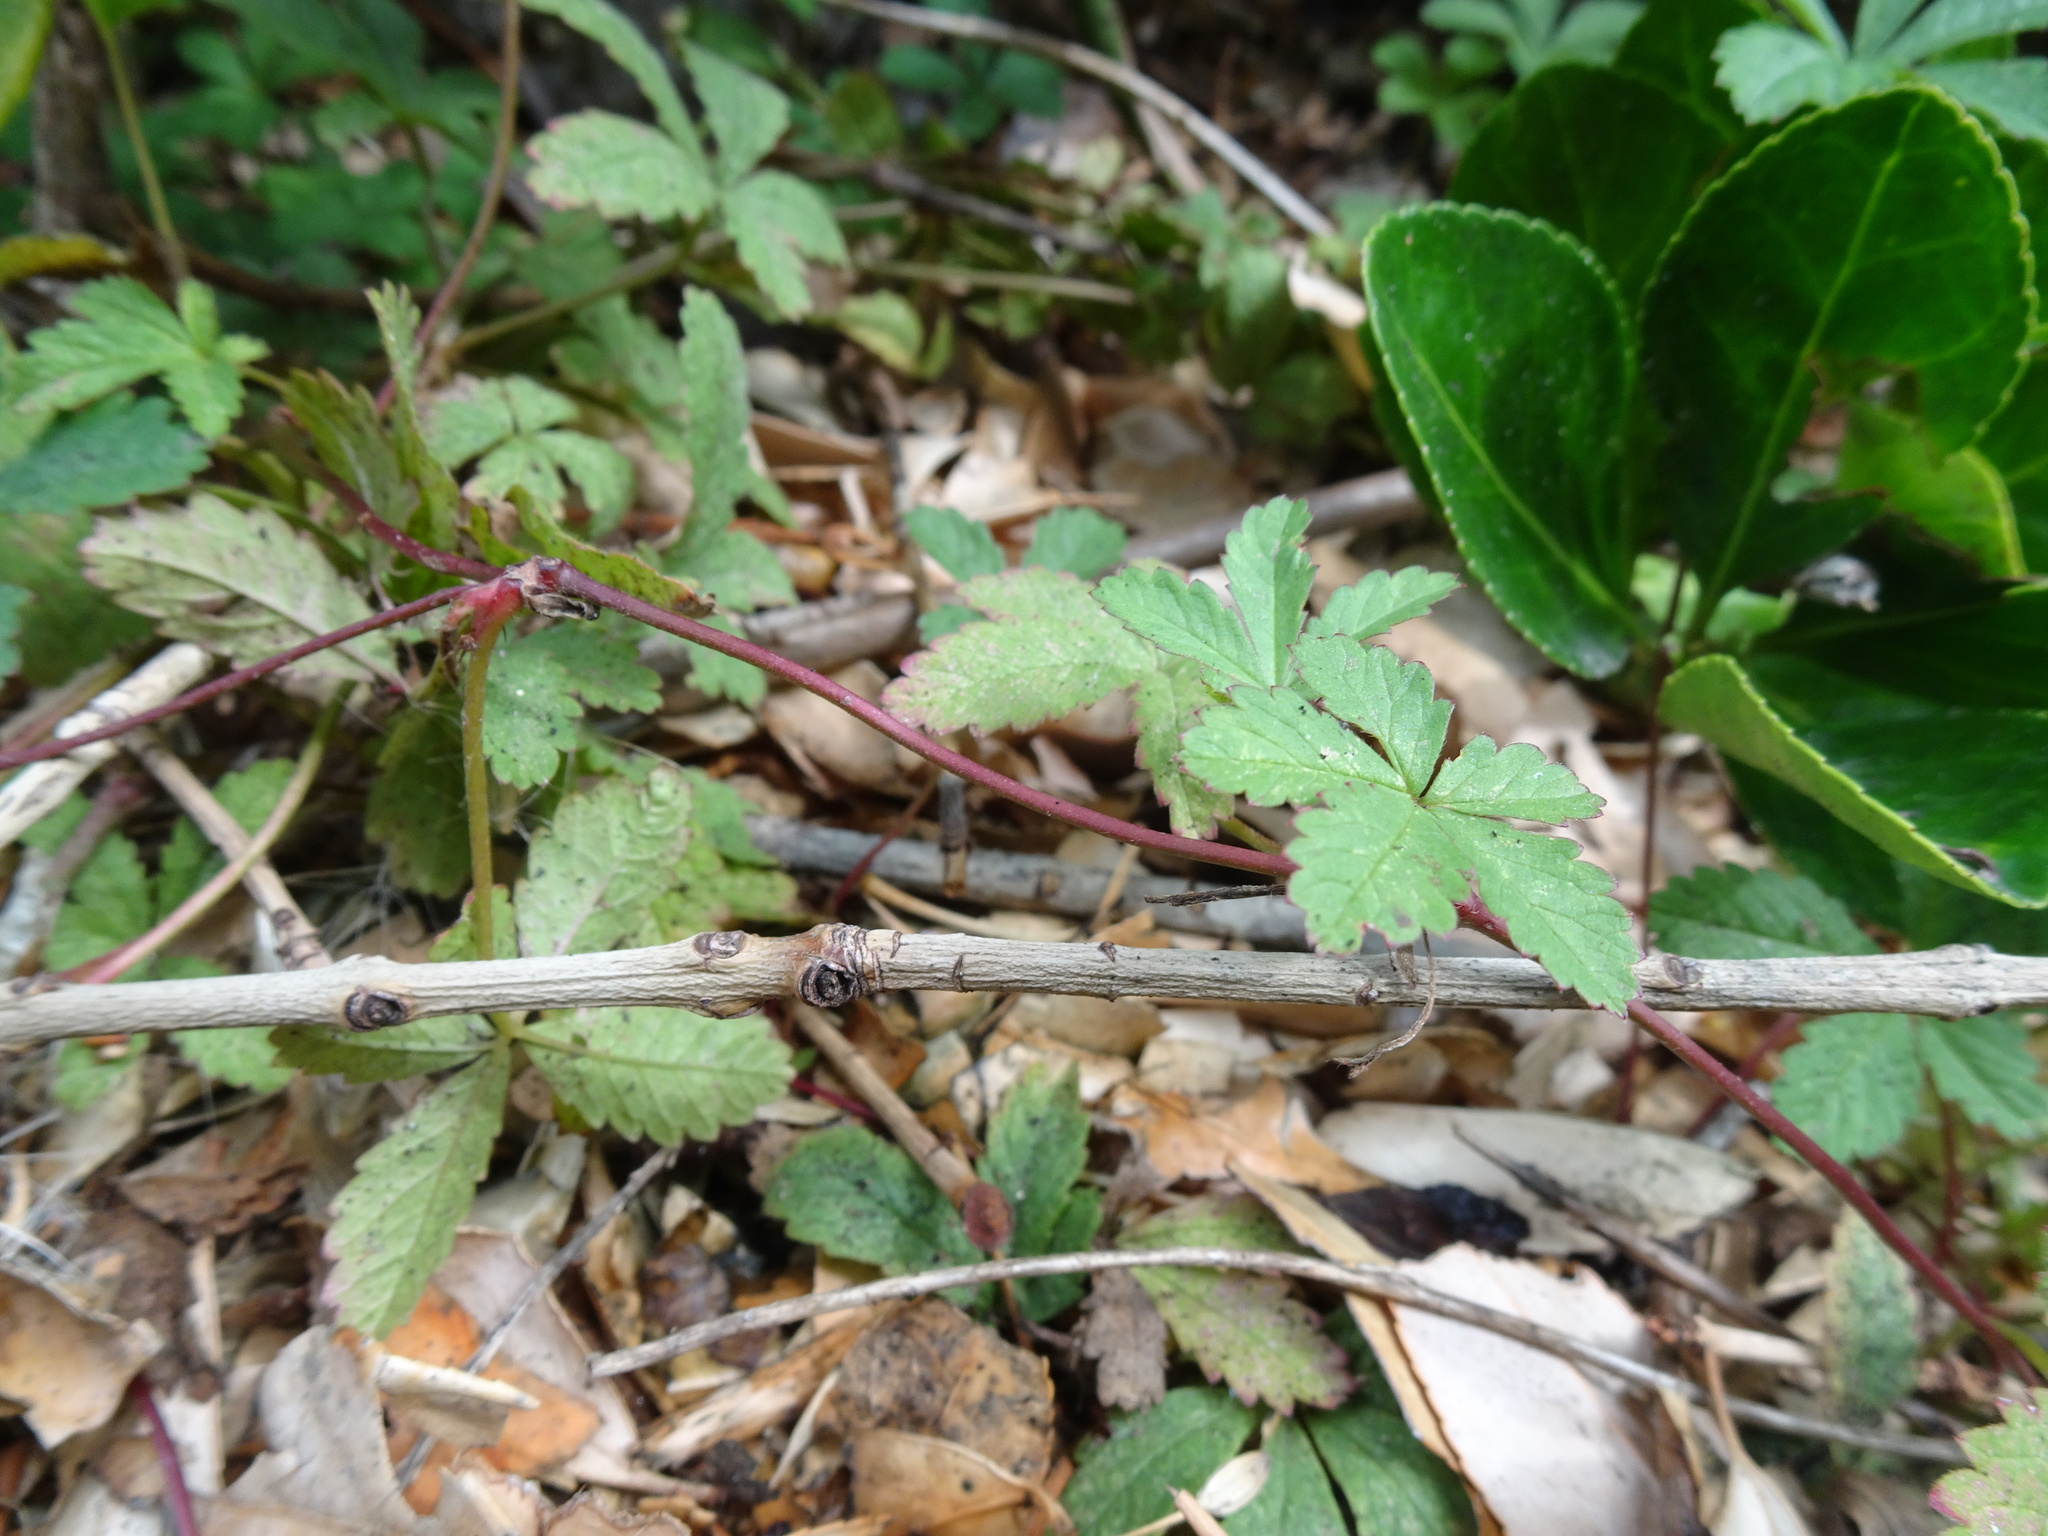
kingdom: Plantae
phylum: Tracheophyta
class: Magnoliopsida
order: Rosales
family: Rosaceae
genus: Potentilla
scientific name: Potentilla reptans
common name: Creeping cinquefoil
